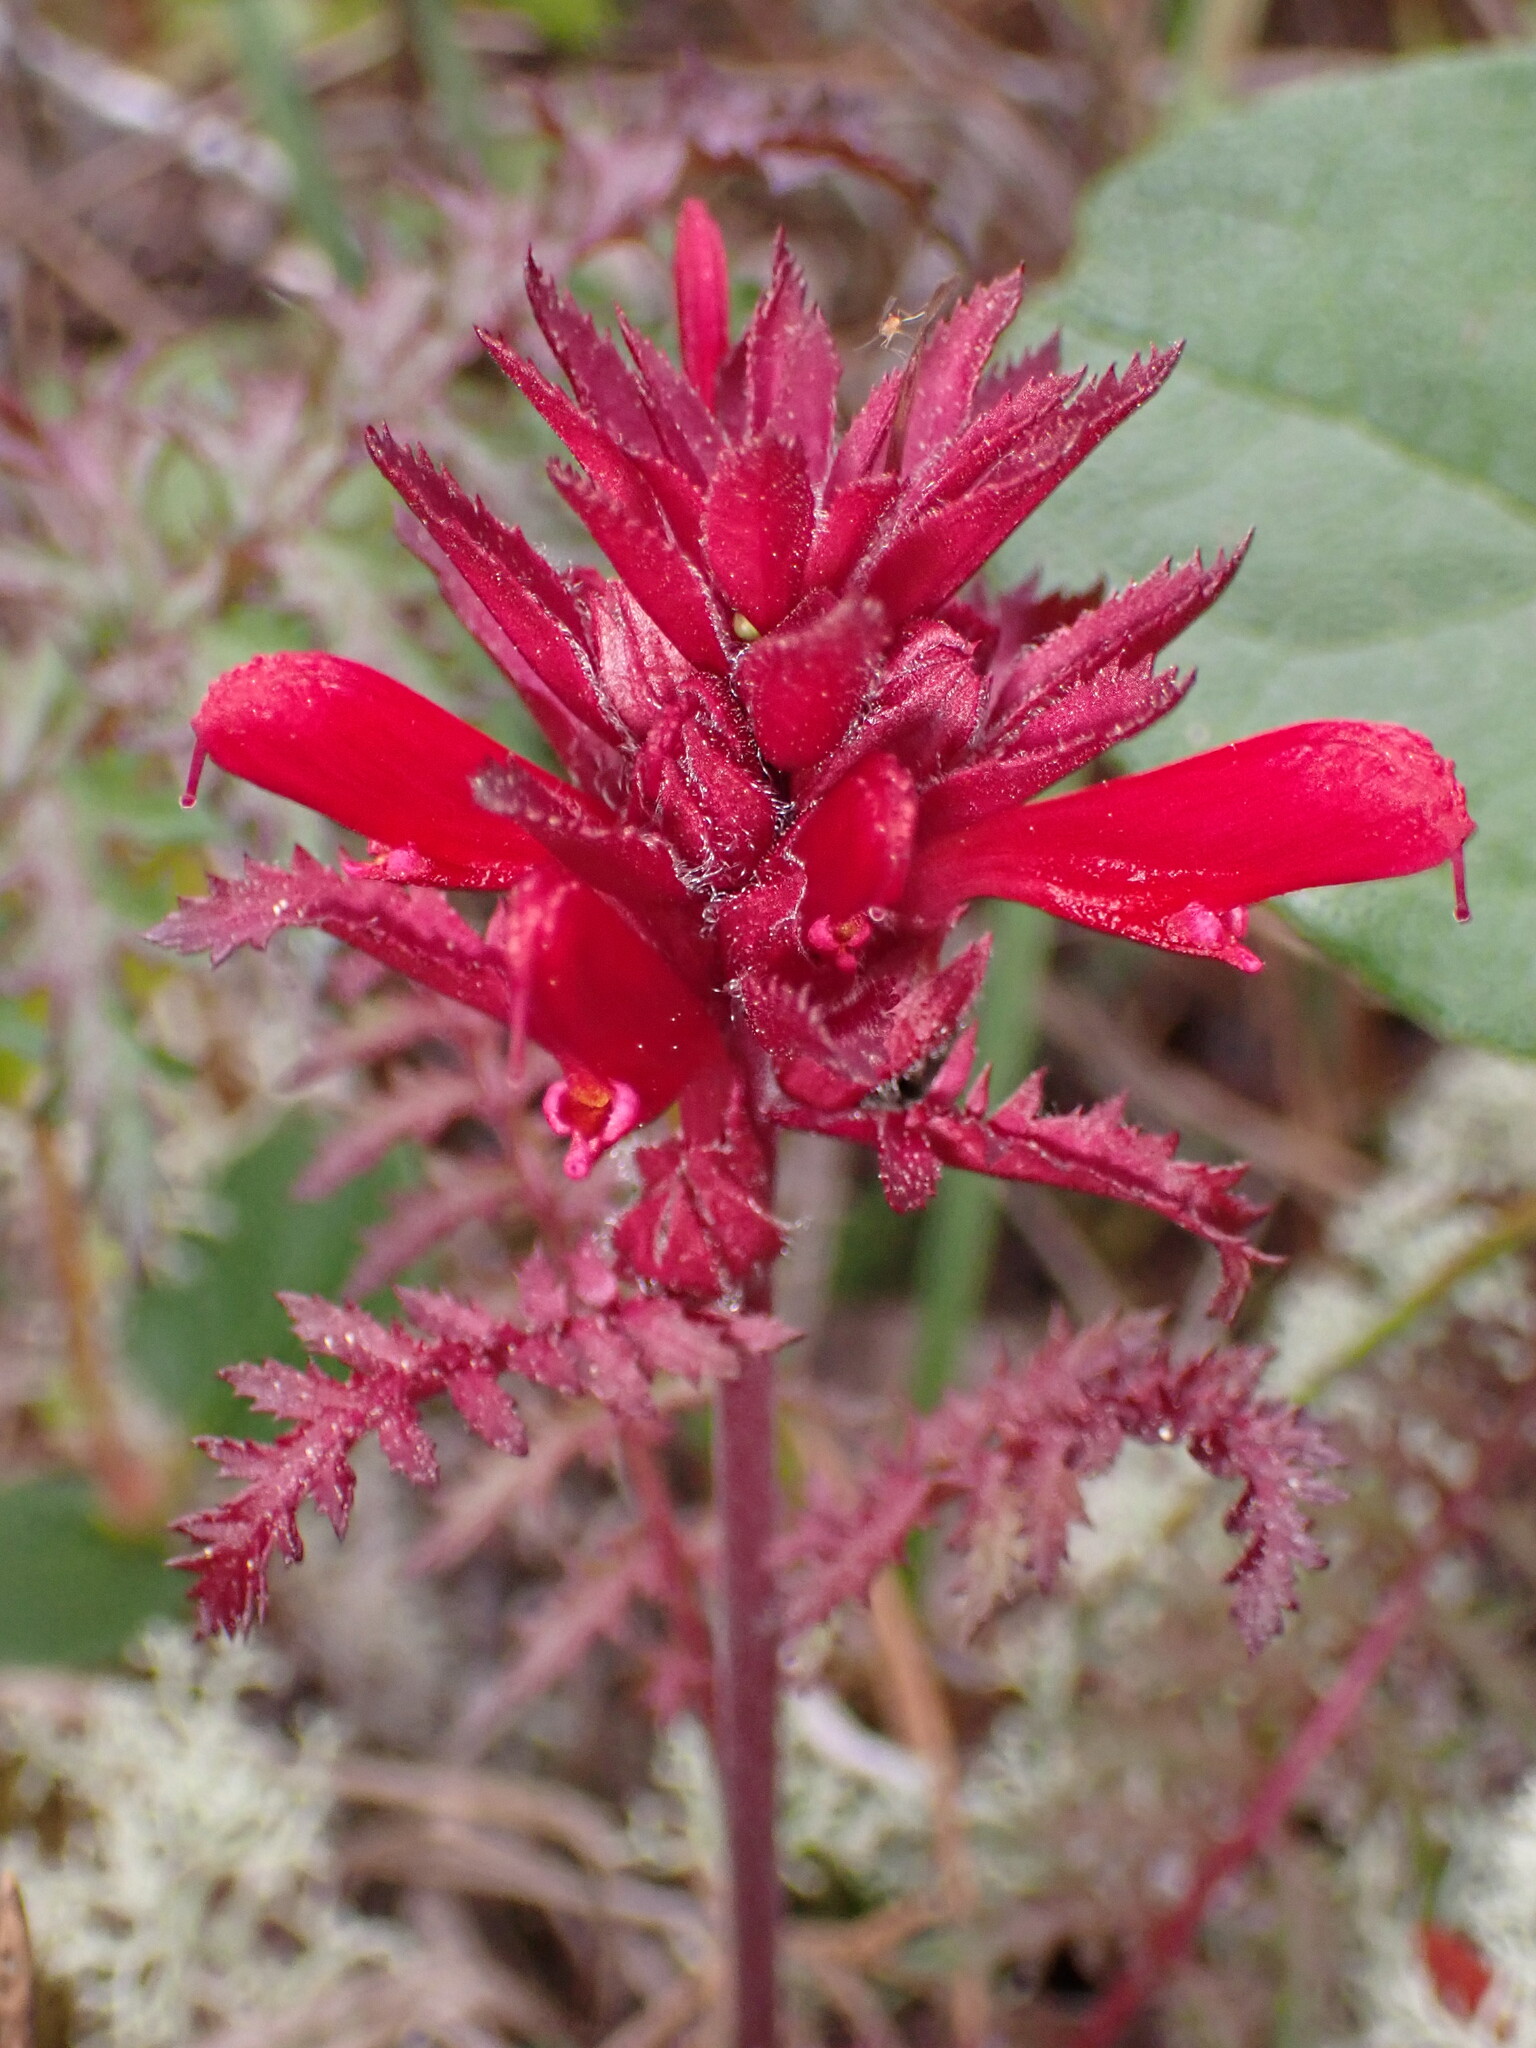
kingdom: Plantae
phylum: Tracheophyta
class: Magnoliopsida
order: Lamiales
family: Orobanchaceae
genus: Pedicularis
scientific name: Pedicularis densiflora
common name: Indian warrior
